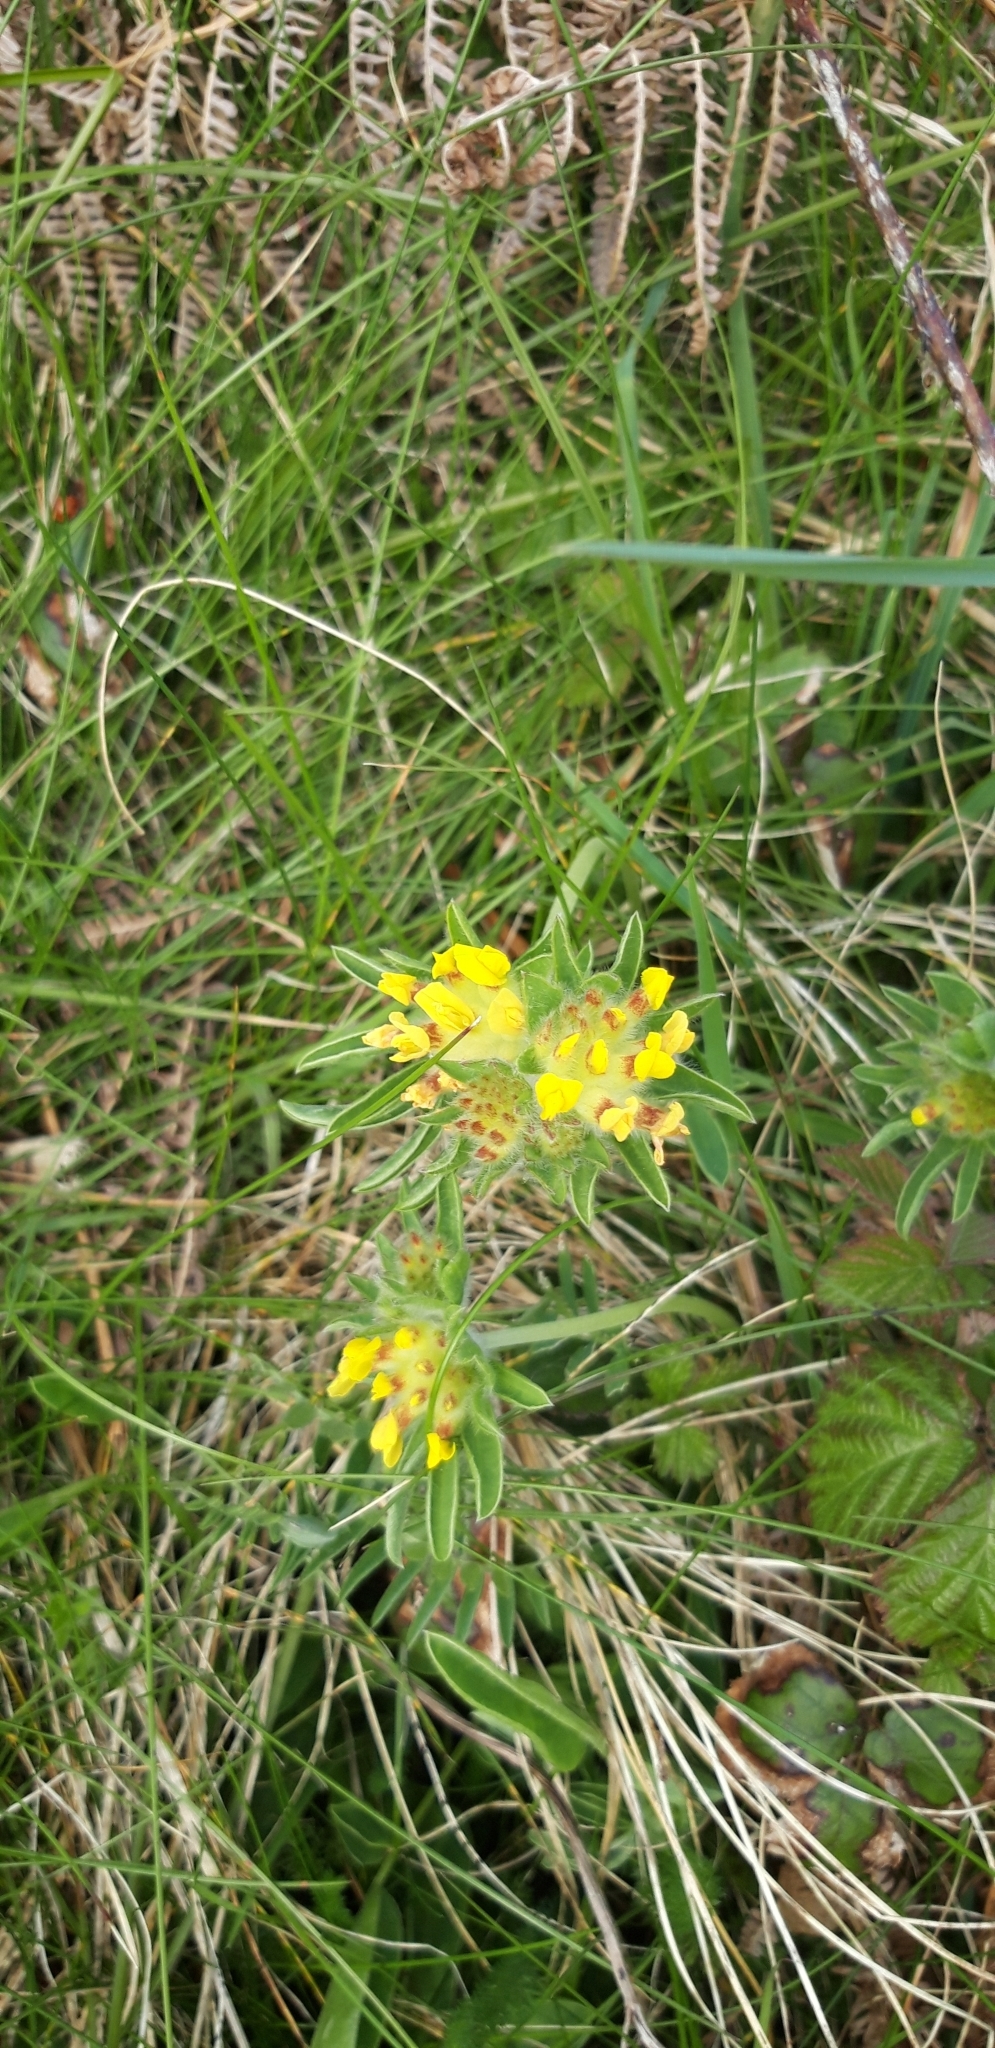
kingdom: Plantae
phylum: Tracheophyta
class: Magnoliopsida
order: Fabales
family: Fabaceae
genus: Anthyllis
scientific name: Anthyllis vulneraria
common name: Kidney vetch
